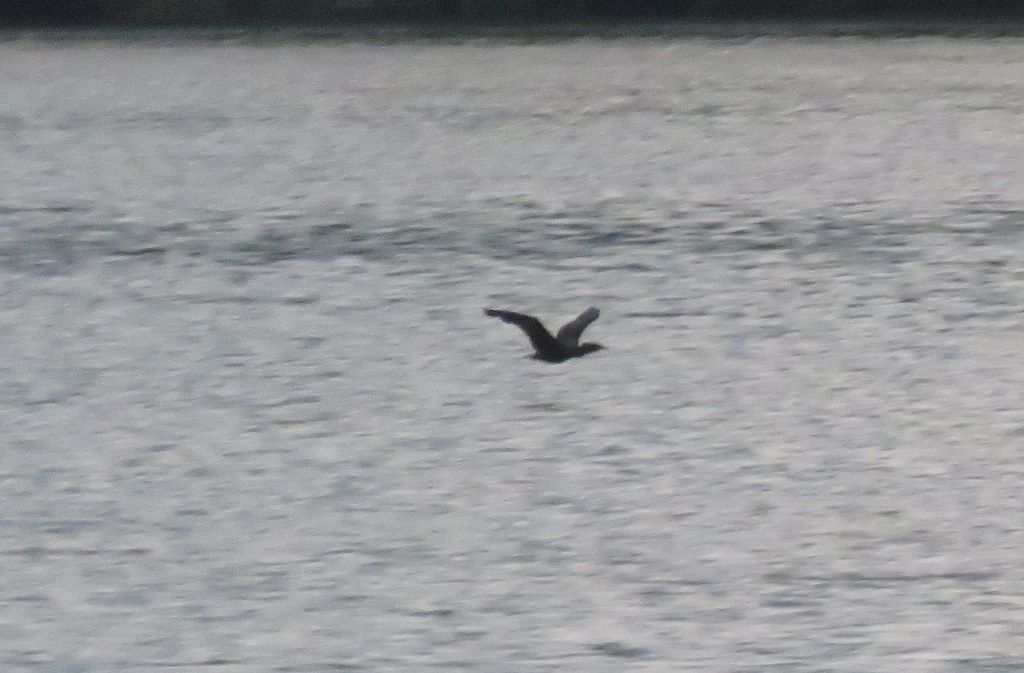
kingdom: Animalia
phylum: Chordata
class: Aves
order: Suliformes
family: Phalacrocoracidae
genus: Phalacrocorax
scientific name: Phalacrocorax brasilianus
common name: Neotropic cormorant
